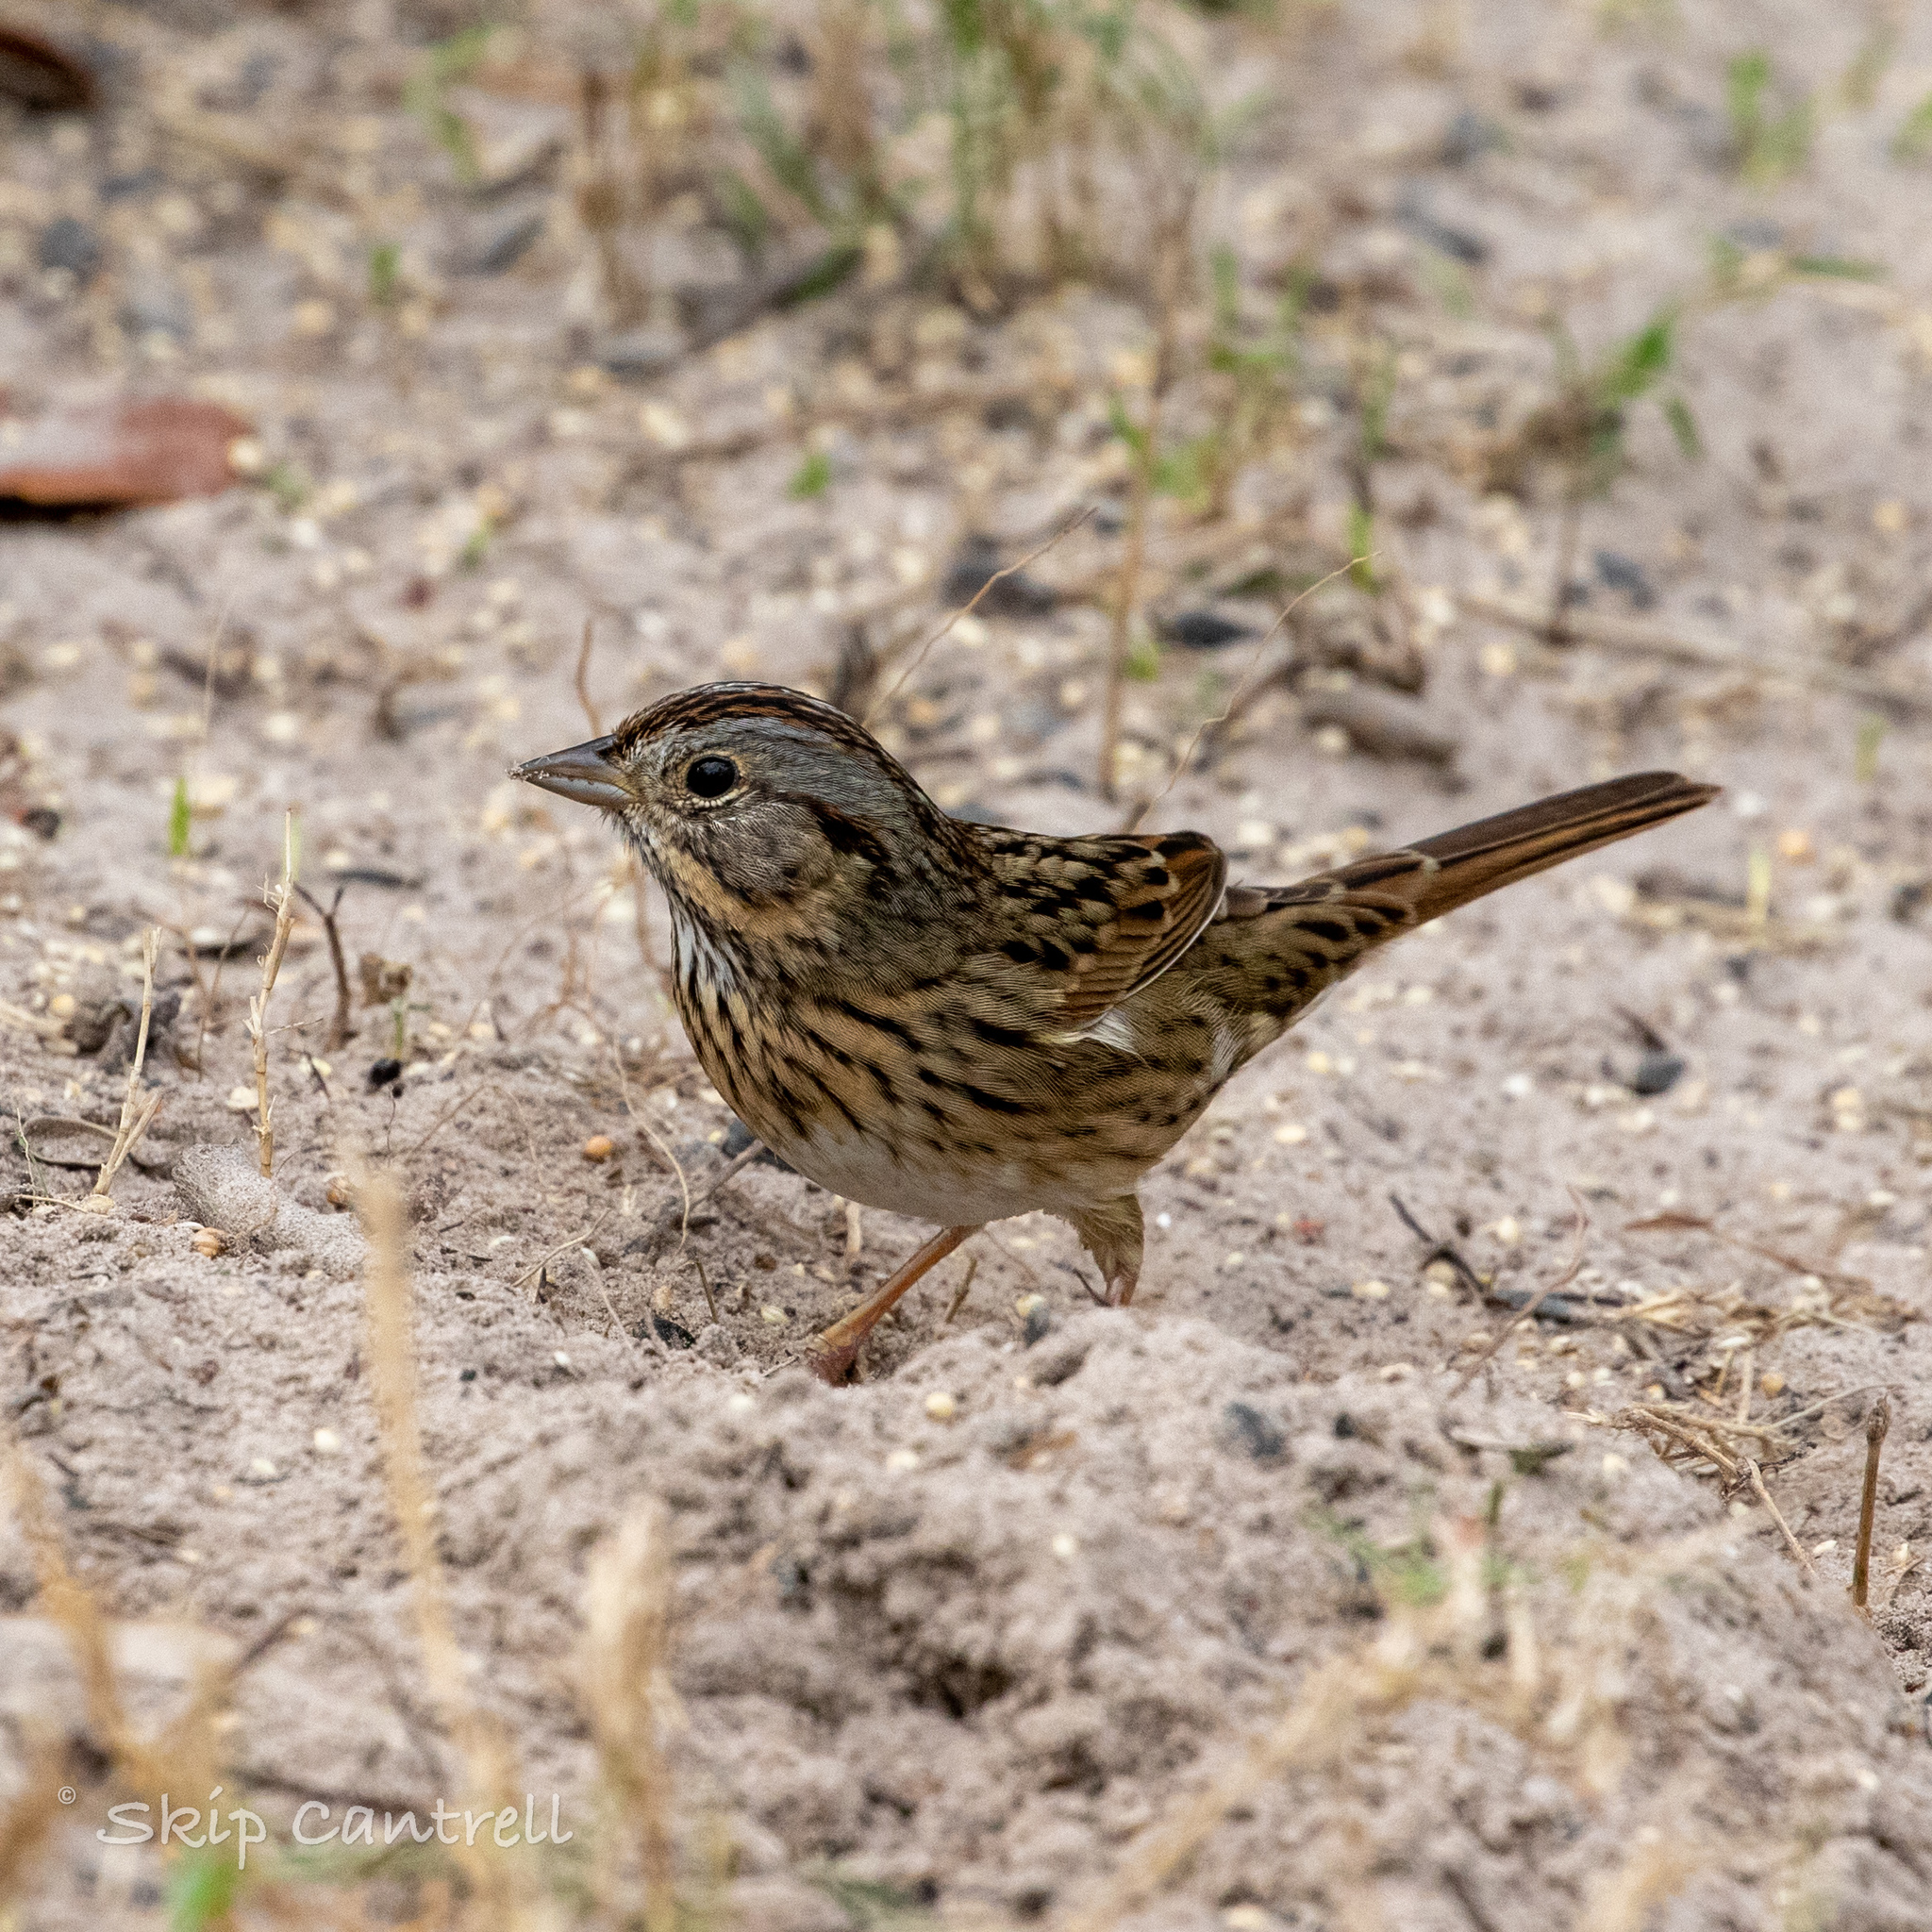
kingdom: Animalia
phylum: Chordata
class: Aves
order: Passeriformes
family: Passerellidae
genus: Melospiza
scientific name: Melospiza lincolnii
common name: Lincoln's sparrow
